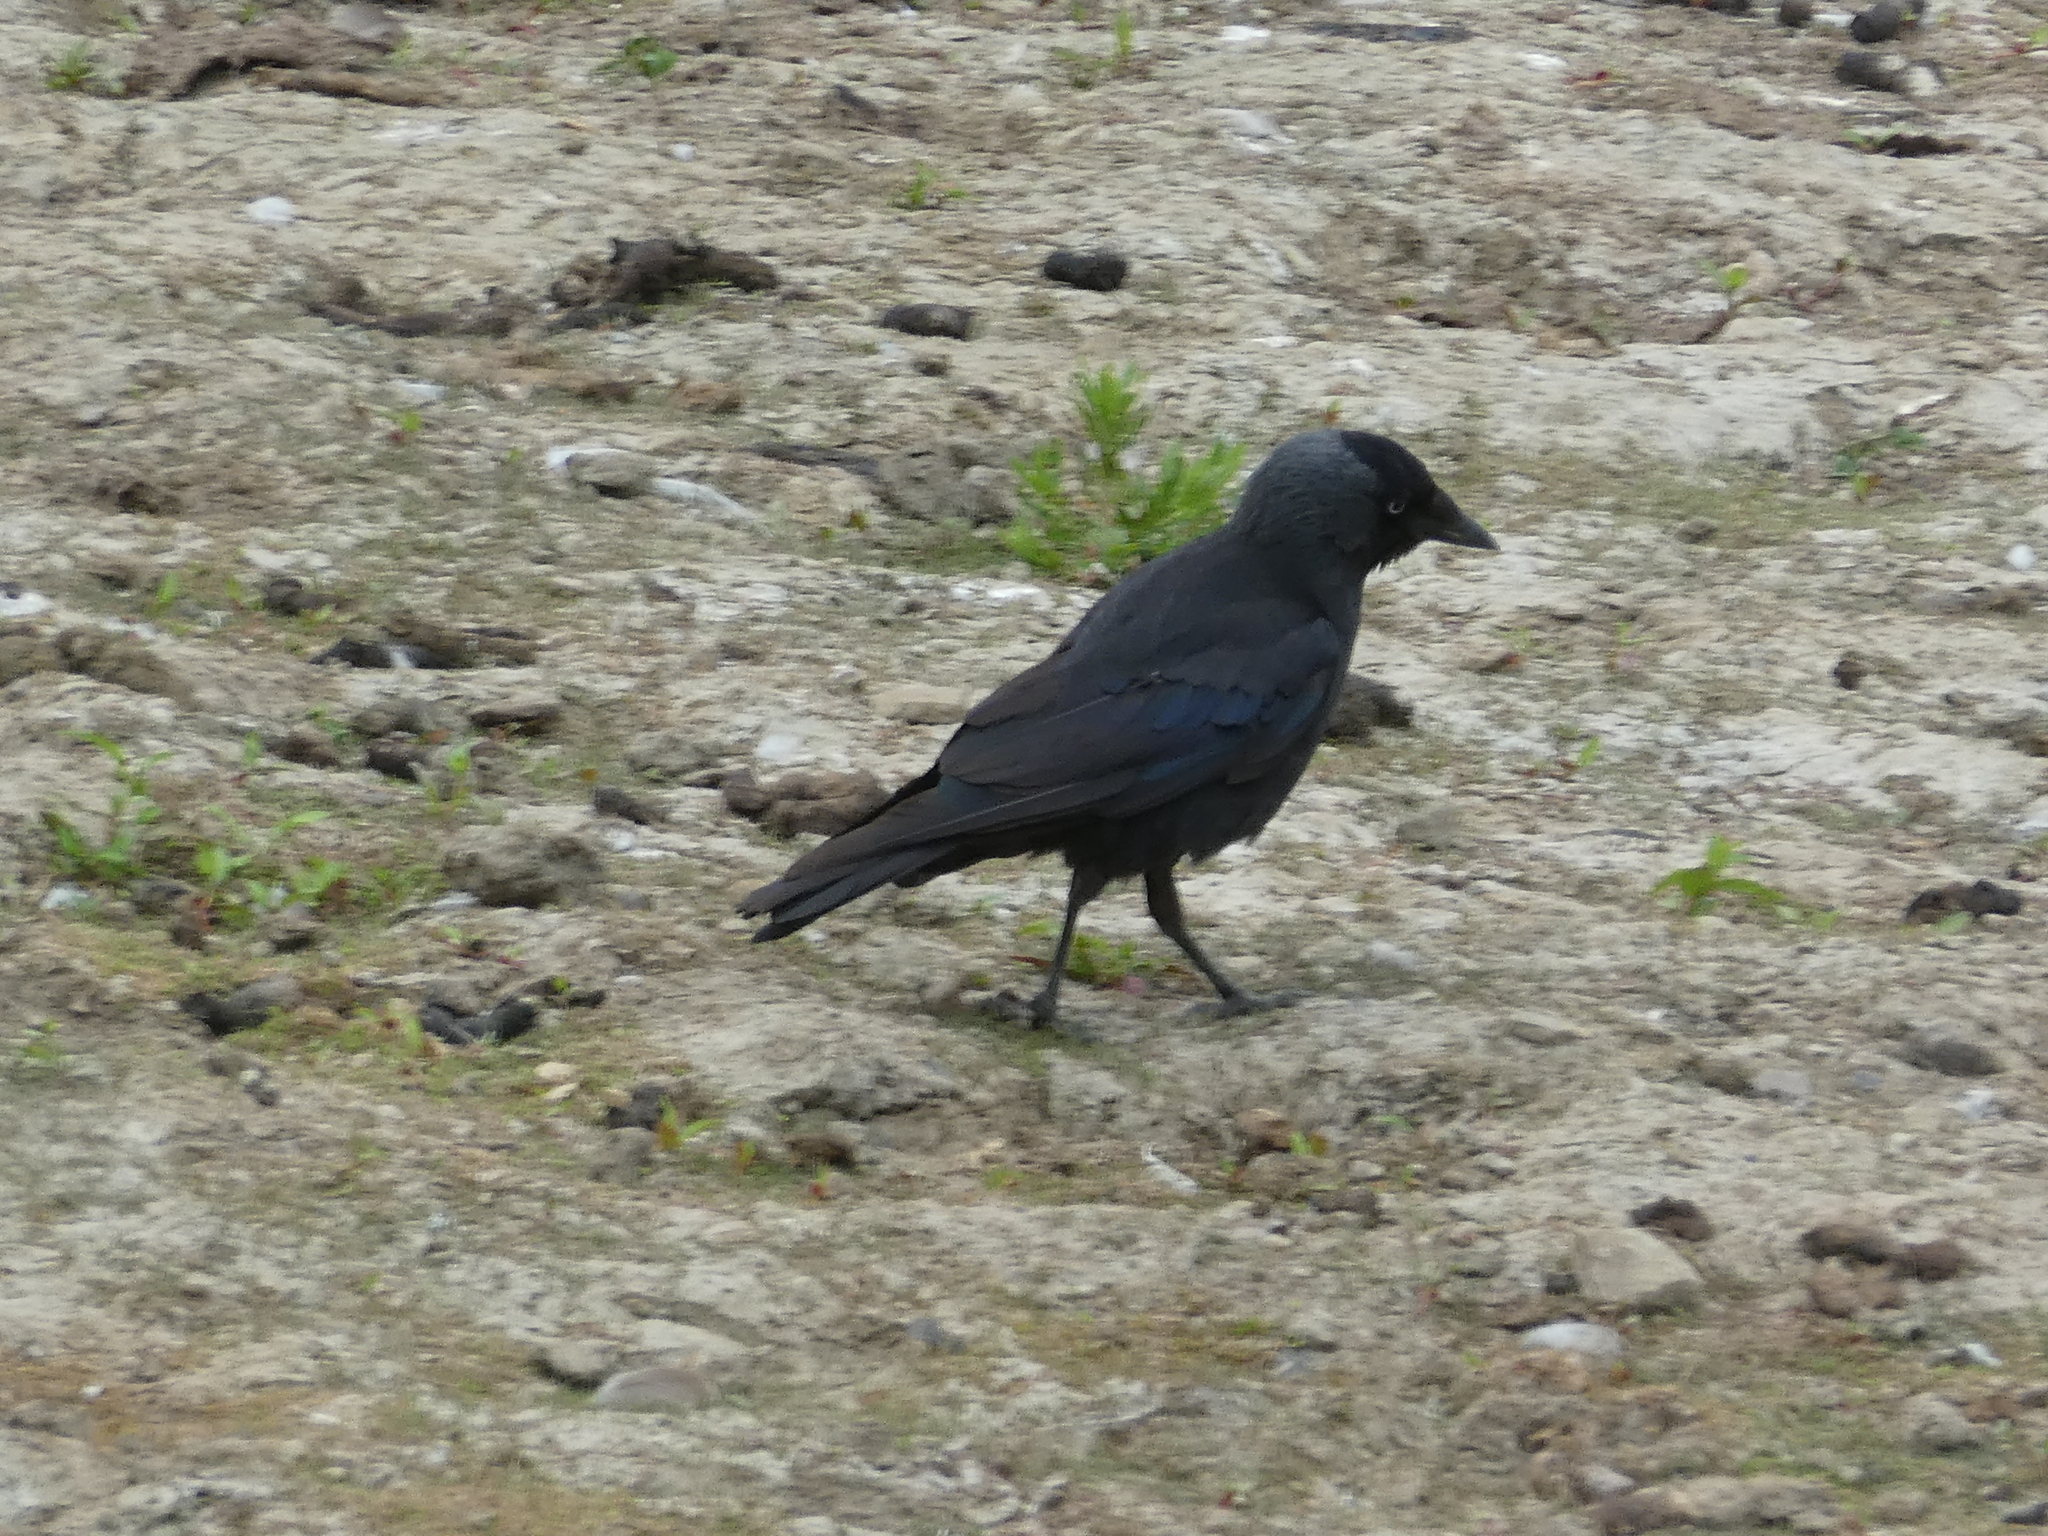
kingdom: Animalia
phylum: Chordata
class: Aves
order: Passeriformes
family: Corvidae
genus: Coloeus
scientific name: Coloeus monedula
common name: Western jackdaw
